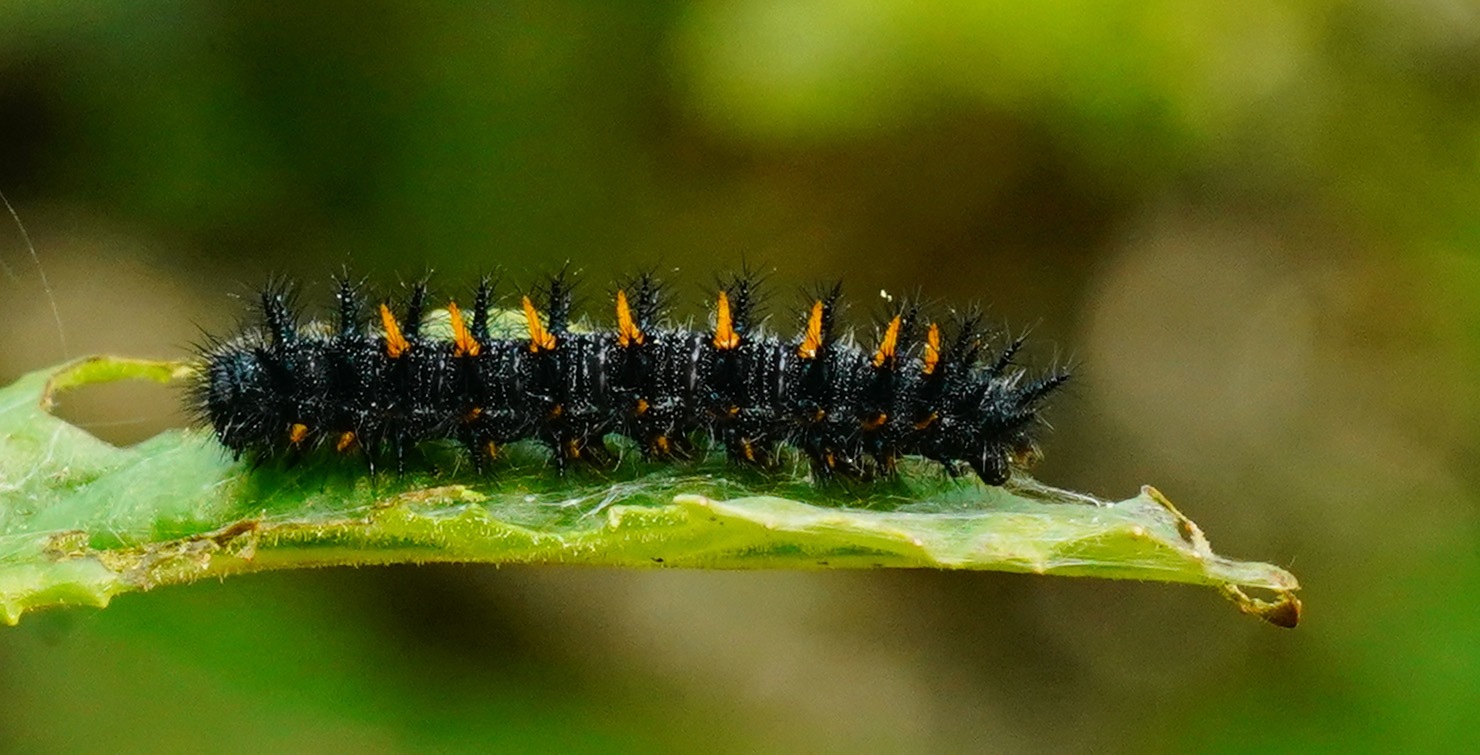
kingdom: Animalia
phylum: Arthropoda
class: Insecta
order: Lepidoptera
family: Nymphalidae
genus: Occidryas
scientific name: Occidryas chalcedona
